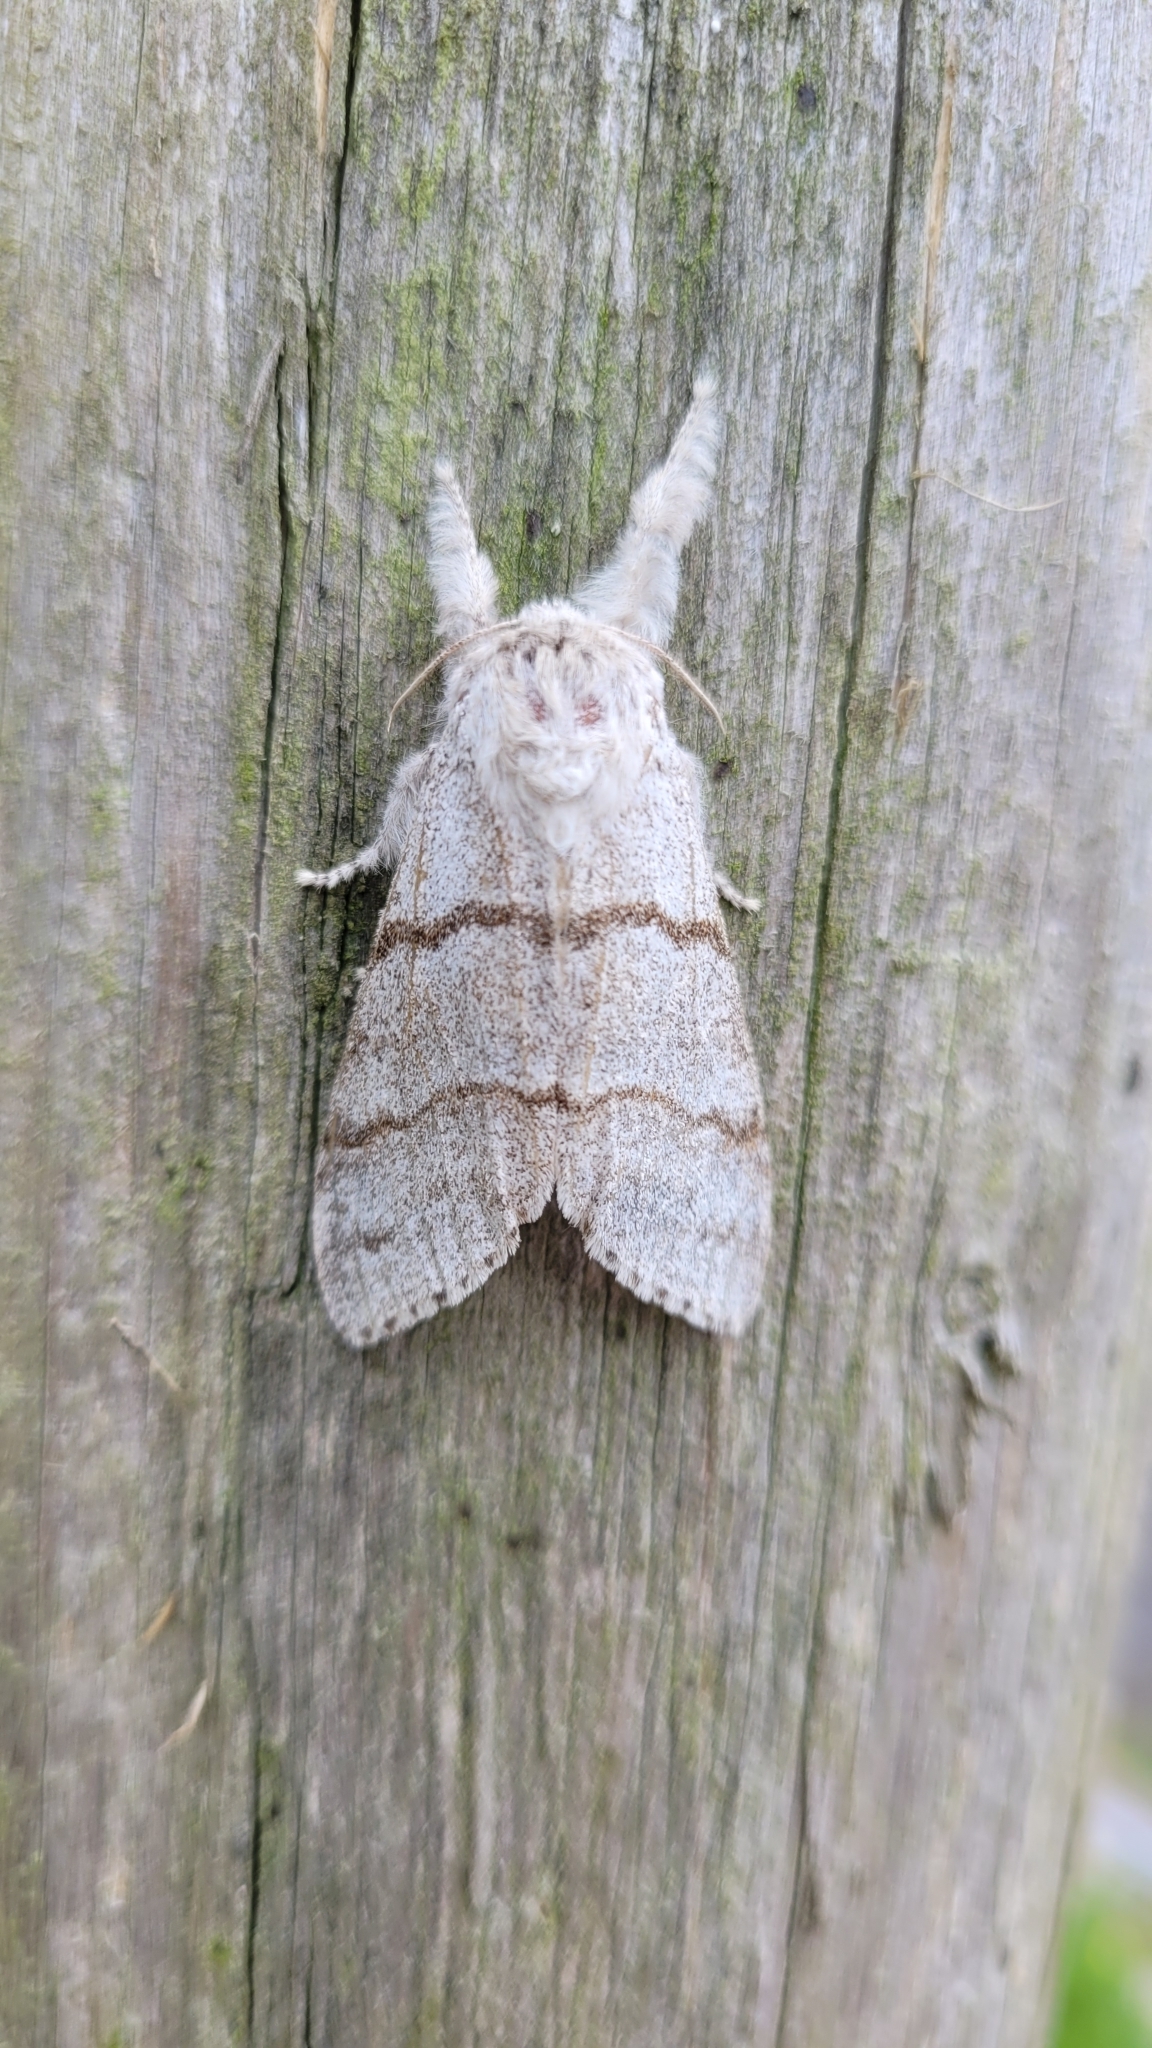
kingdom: Animalia
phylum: Arthropoda
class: Insecta
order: Lepidoptera
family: Erebidae
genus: Calliteara
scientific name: Calliteara pudibunda
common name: Pale tussock
